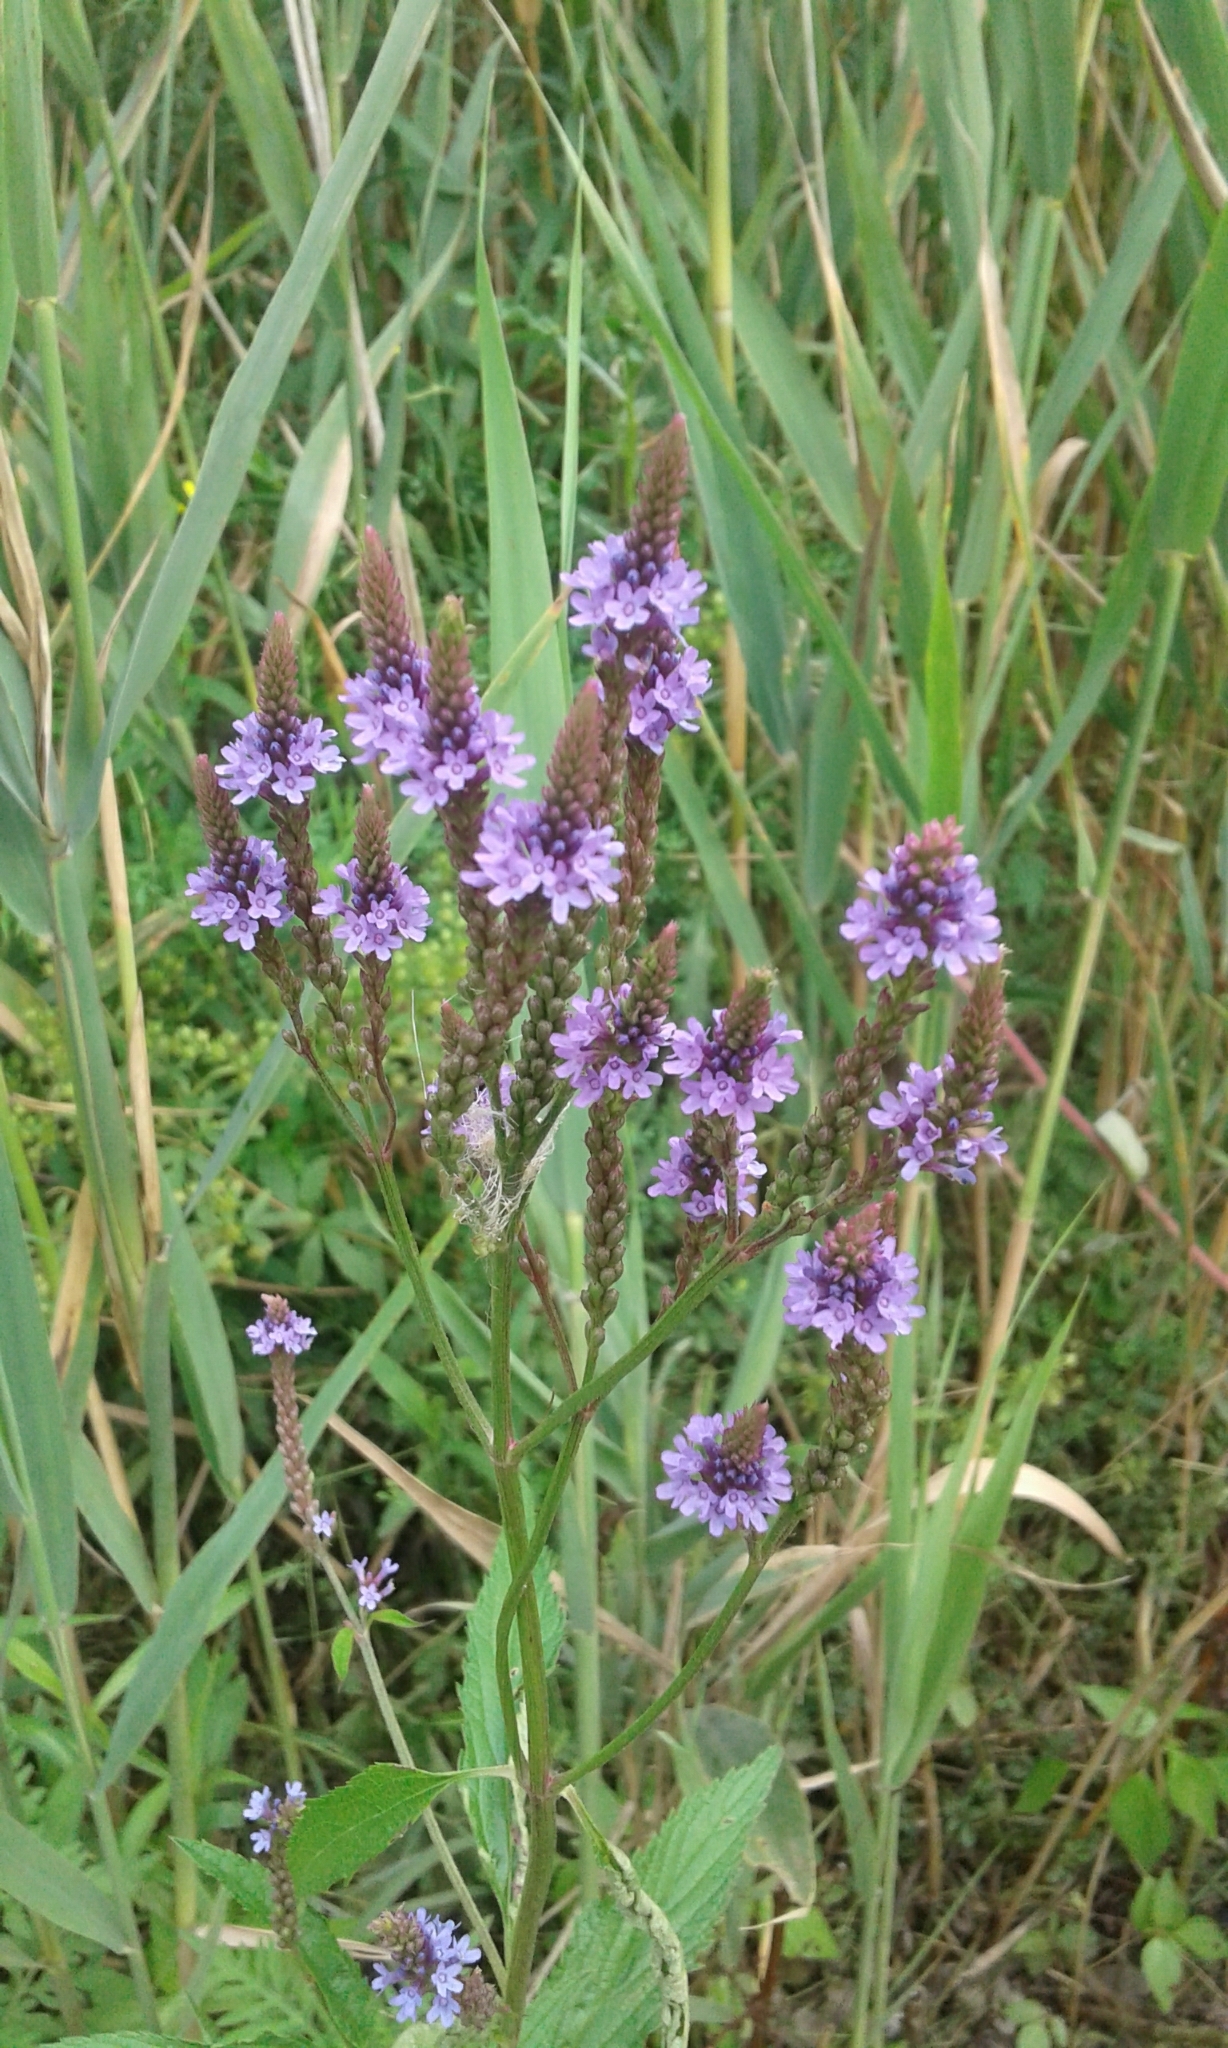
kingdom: Plantae
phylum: Tracheophyta
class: Magnoliopsida
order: Lamiales
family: Verbenaceae
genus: Verbena
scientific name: Verbena hastata
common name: American blue vervain
